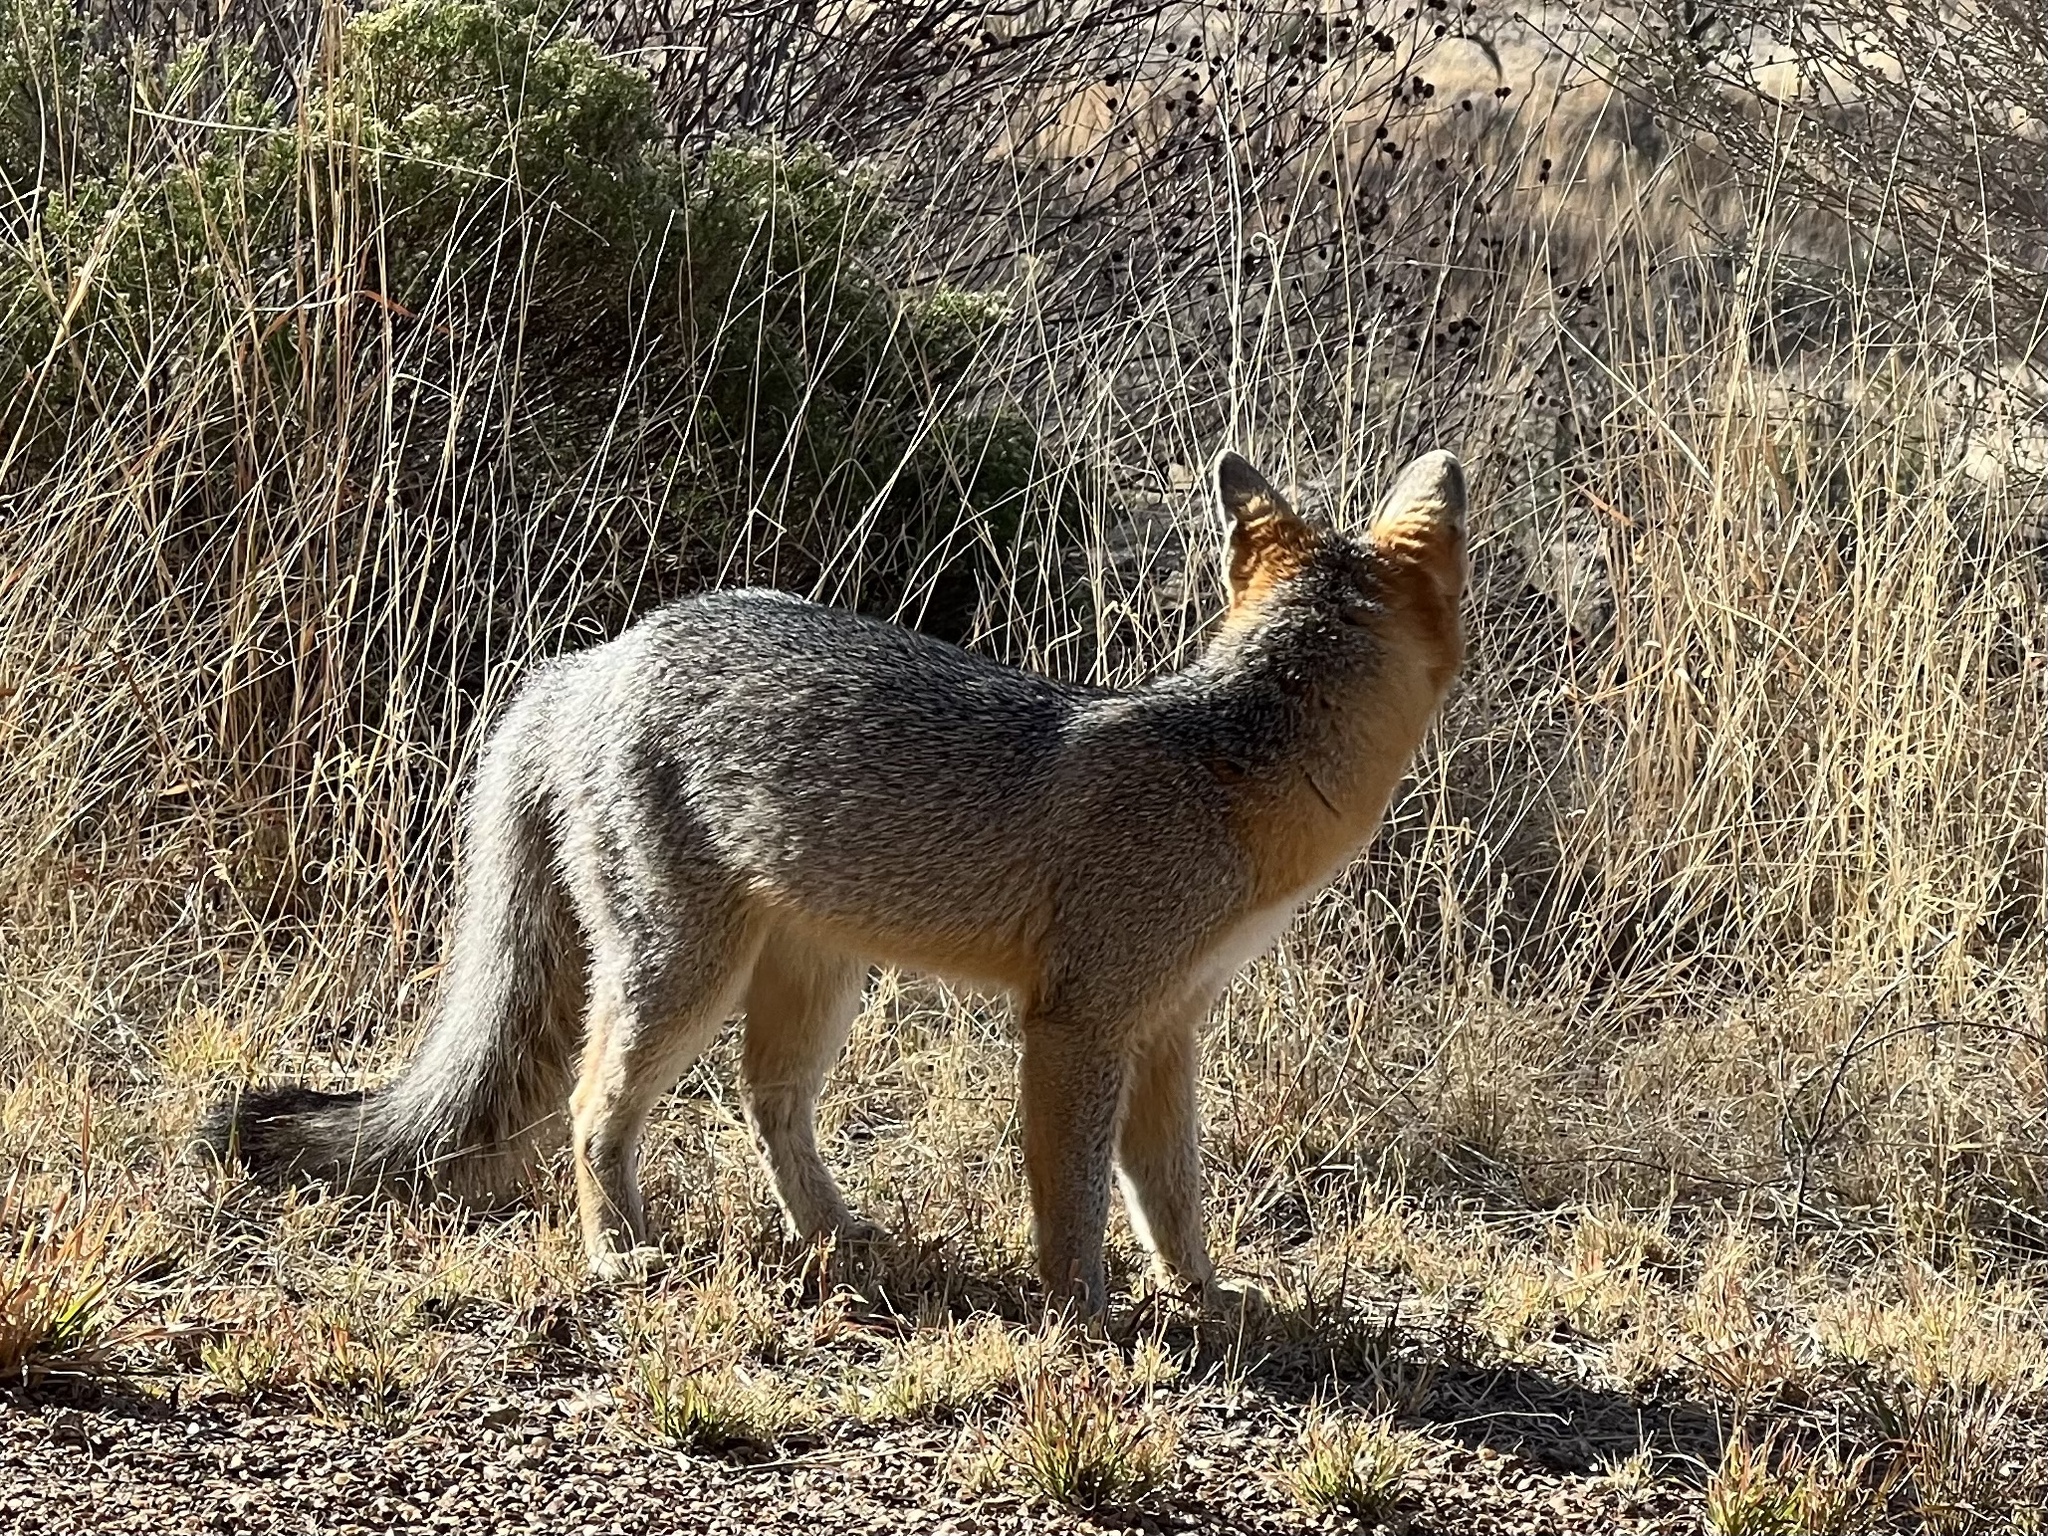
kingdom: Animalia
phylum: Chordata
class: Mammalia
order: Carnivora
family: Canidae
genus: Urocyon
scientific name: Urocyon cinereoargenteus
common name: Gray fox
